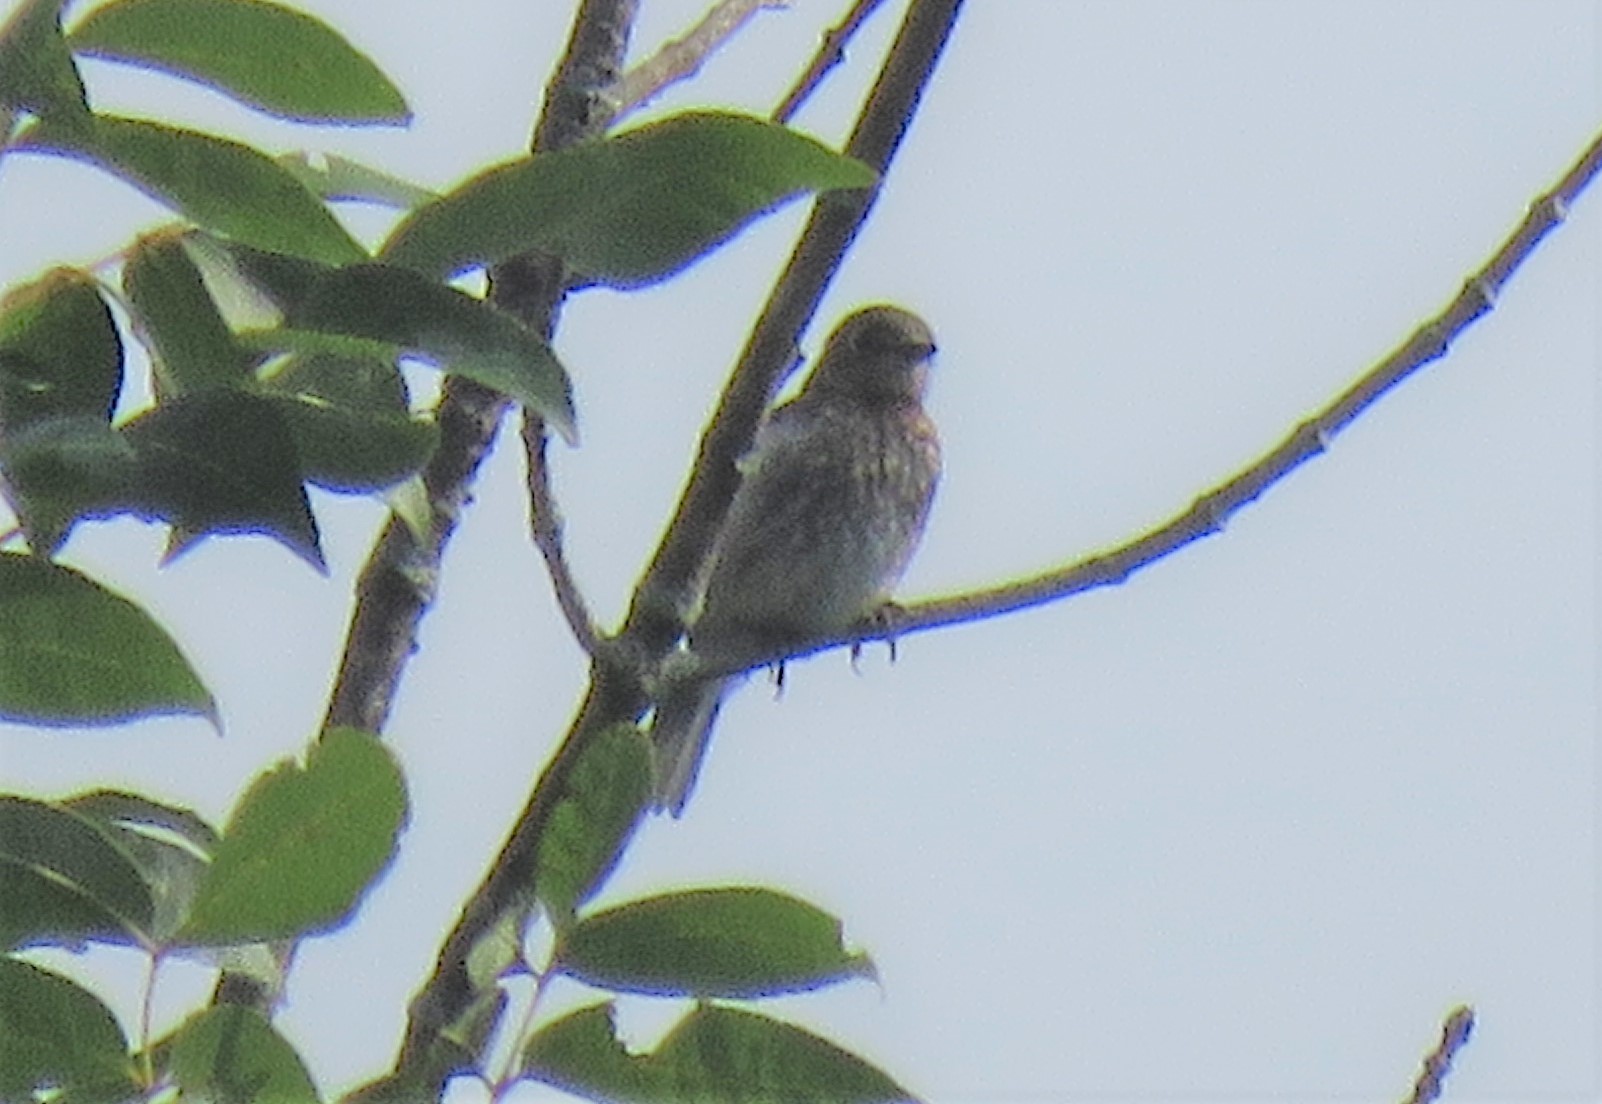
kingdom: Animalia
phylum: Chordata
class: Aves
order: Passeriformes
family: Turdidae
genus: Sialia
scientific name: Sialia sialis
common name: Eastern bluebird
